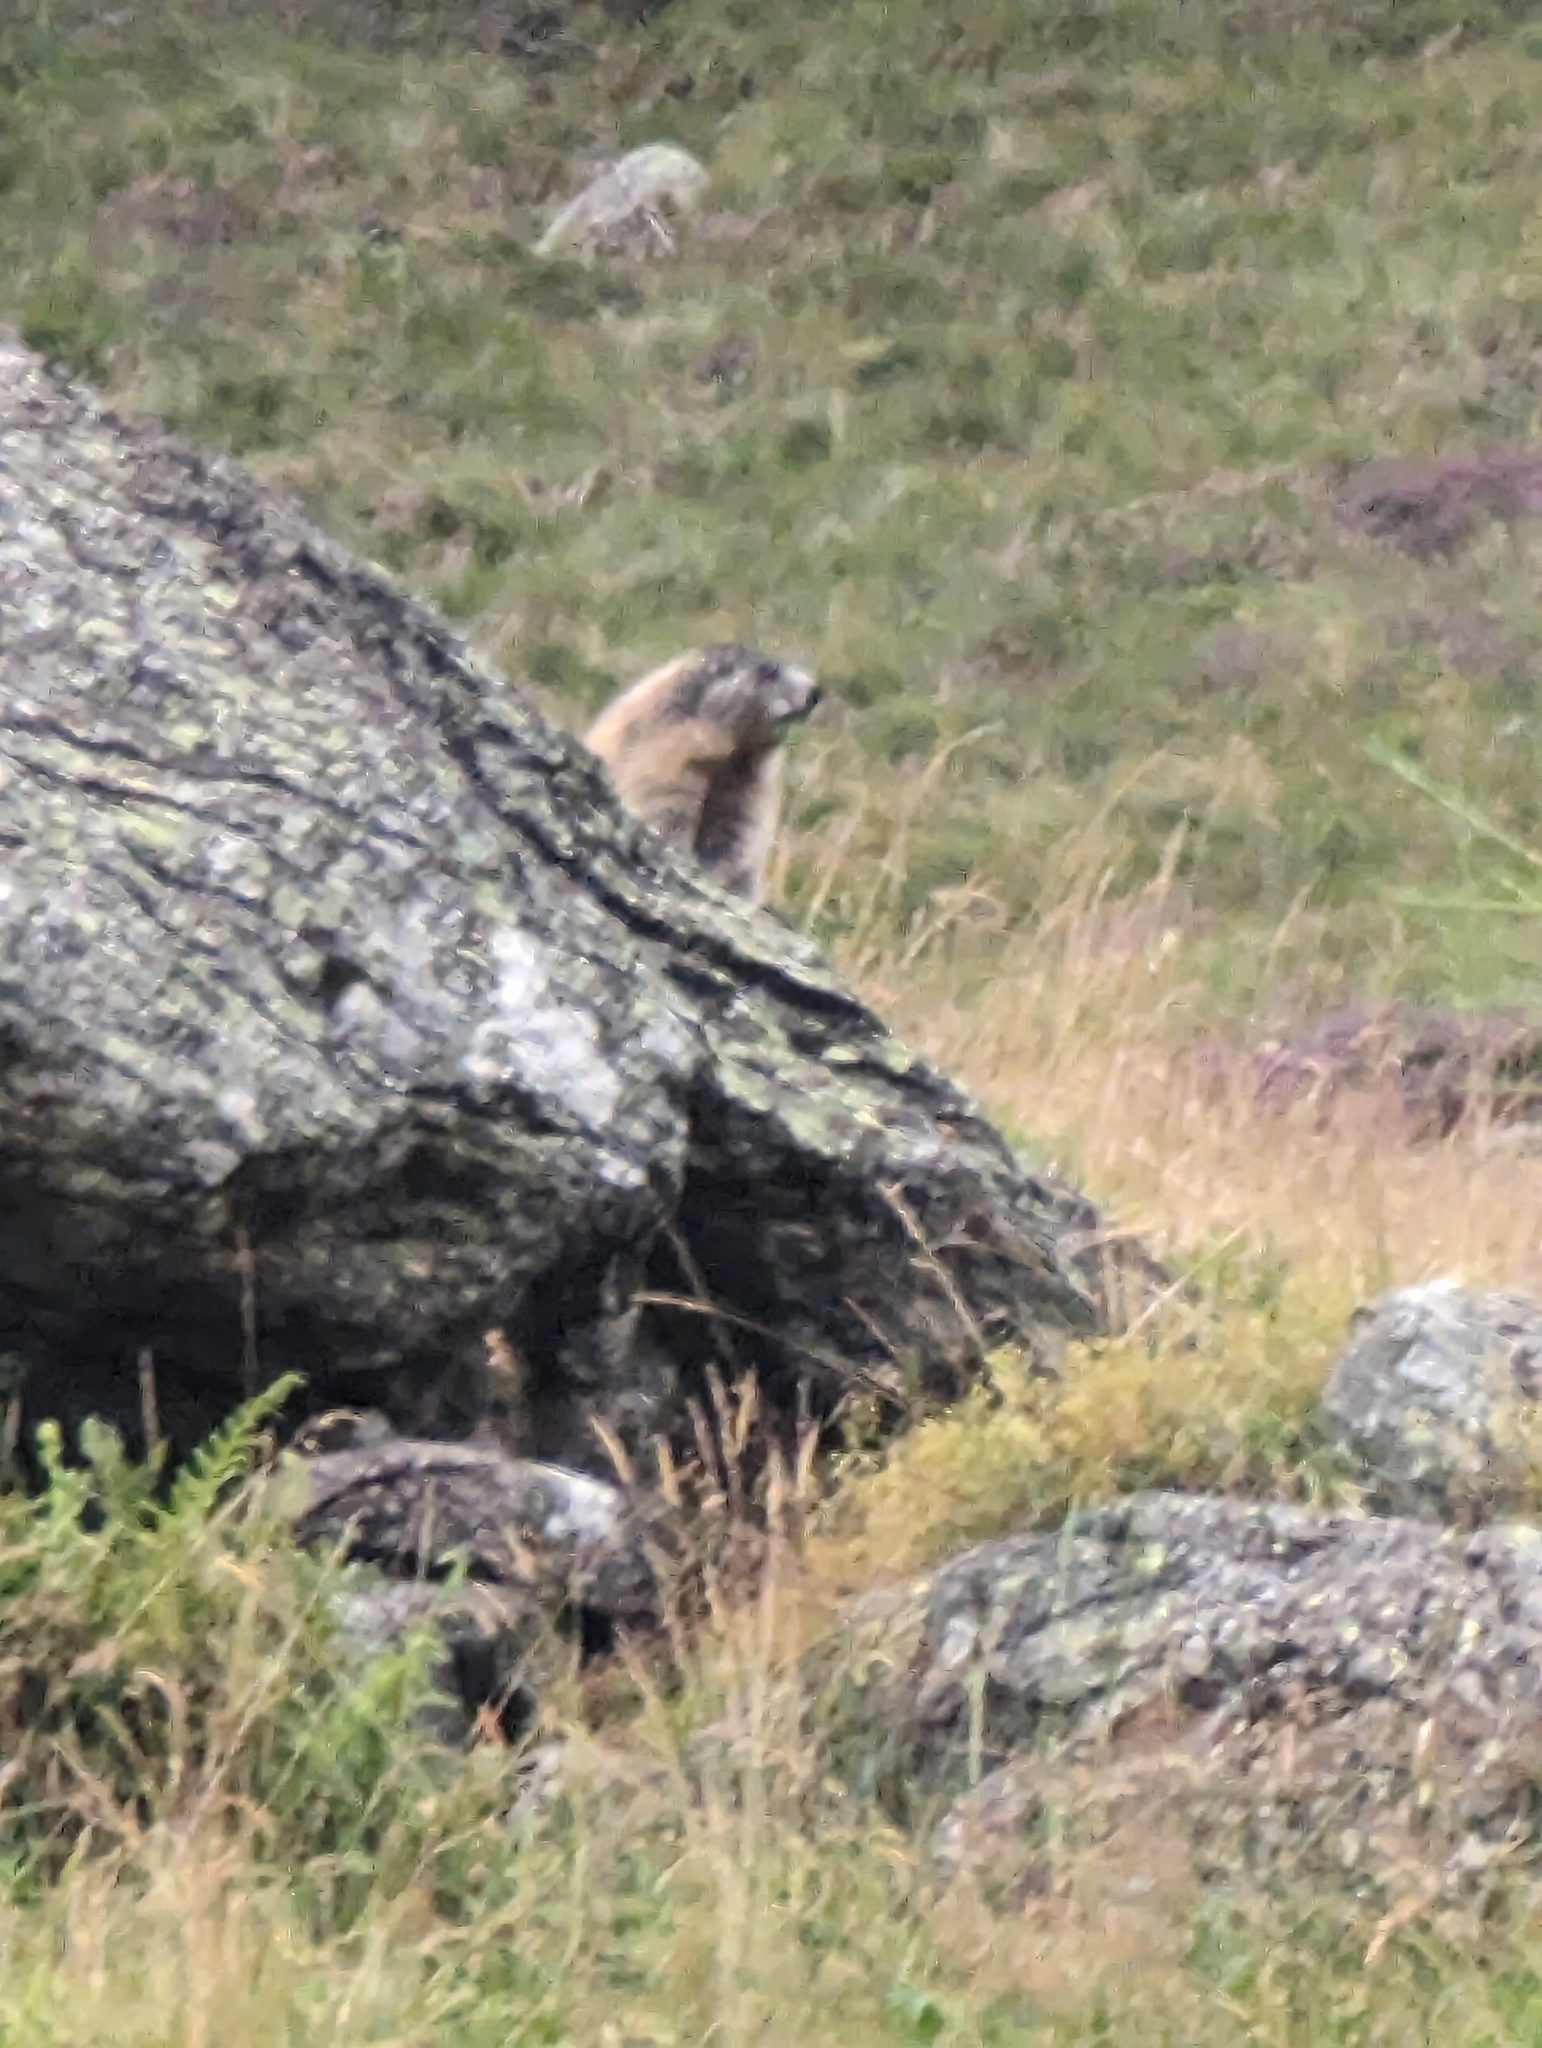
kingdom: Animalia
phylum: Chordata
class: Mammalia
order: Rodentia
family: Sciuridae
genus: Marmota
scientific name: Marmota marmota
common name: Alpine marmot
